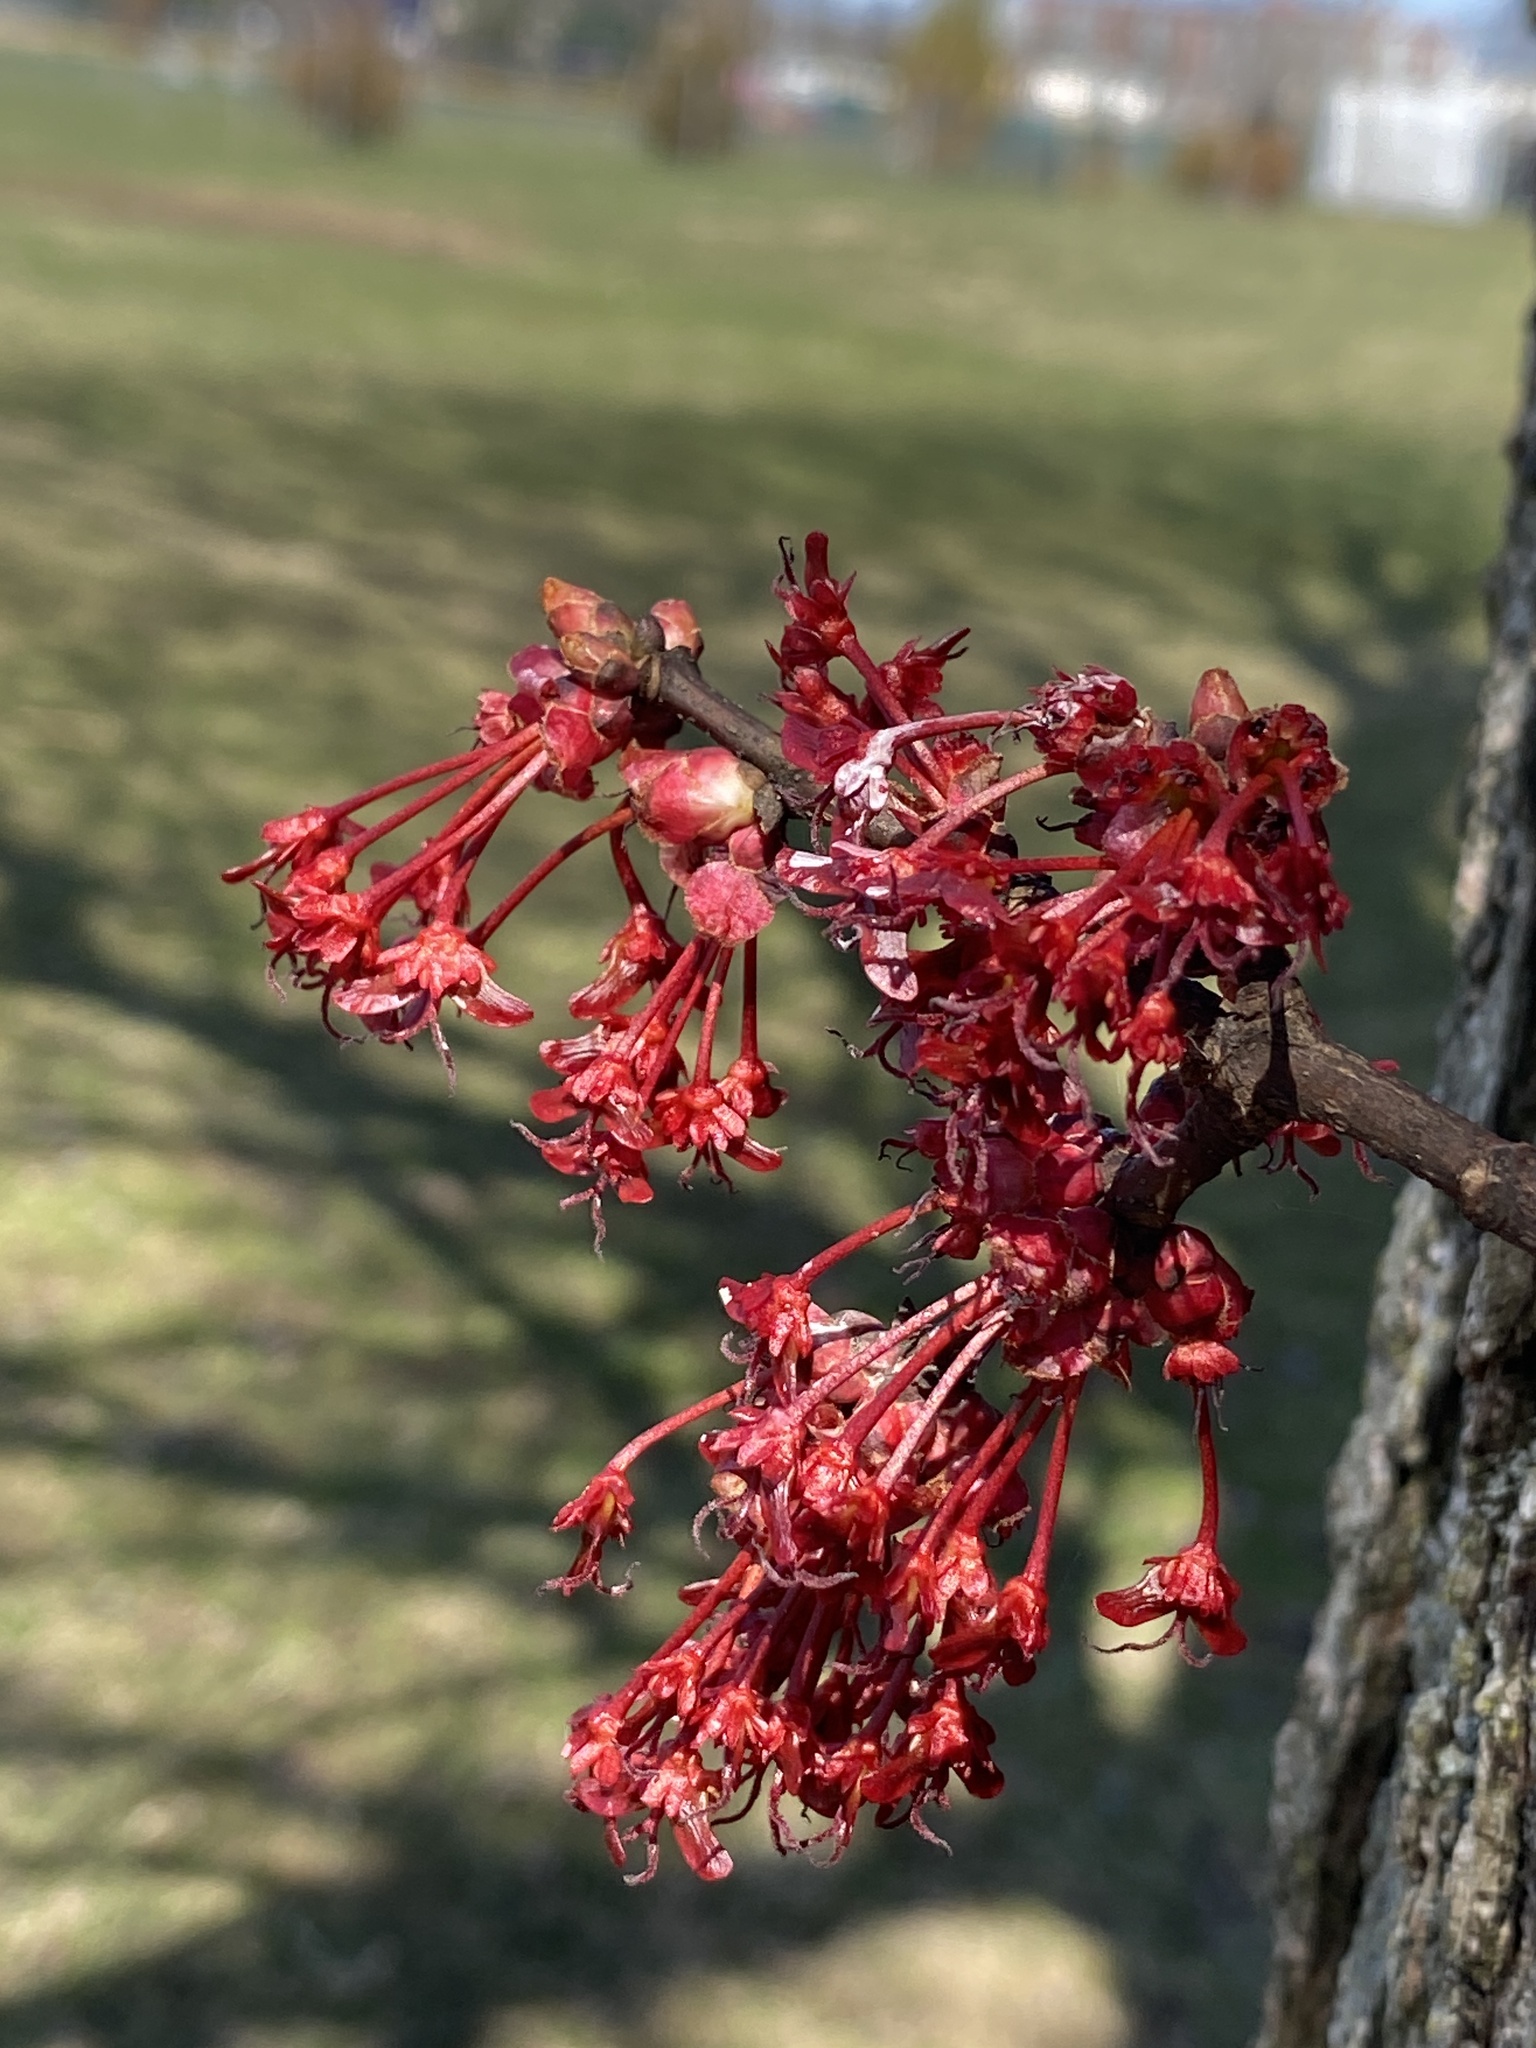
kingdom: Plantae
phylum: Tracheophyta
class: Magnoliopsida
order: Sapindales
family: Sapindaceae
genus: Acer
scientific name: Acer rubrum
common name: Red maple
